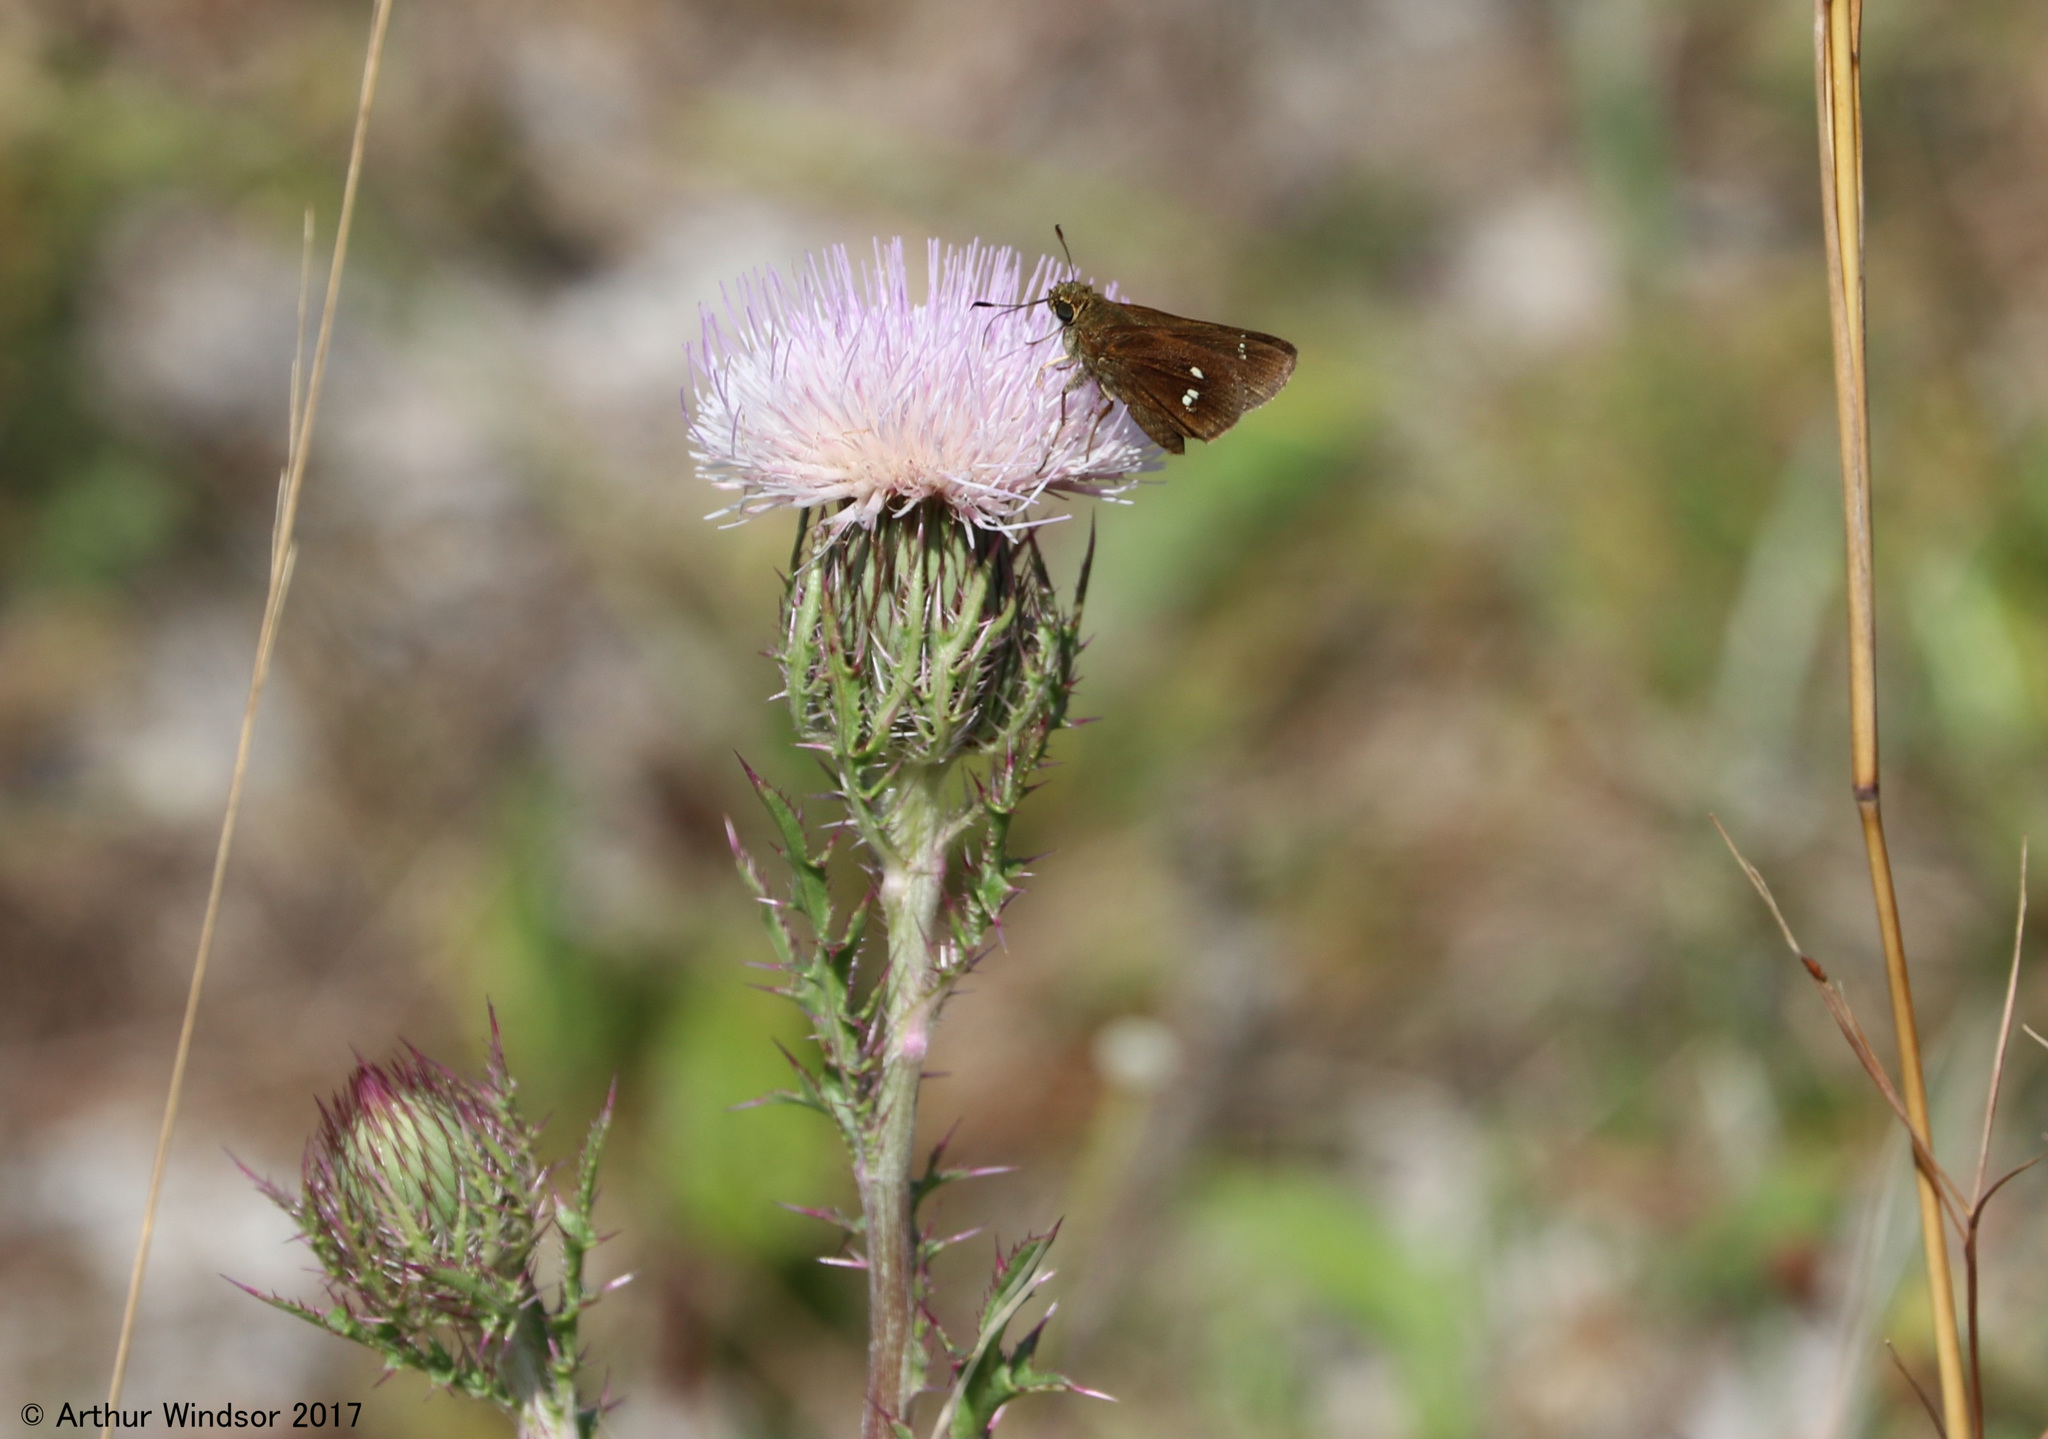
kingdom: Animalia
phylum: Arthropoda
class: Insecta
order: Lepidoptera
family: Hesperiidae
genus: Oligoria
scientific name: Oligoria maculata
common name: Twin-spot skipper
